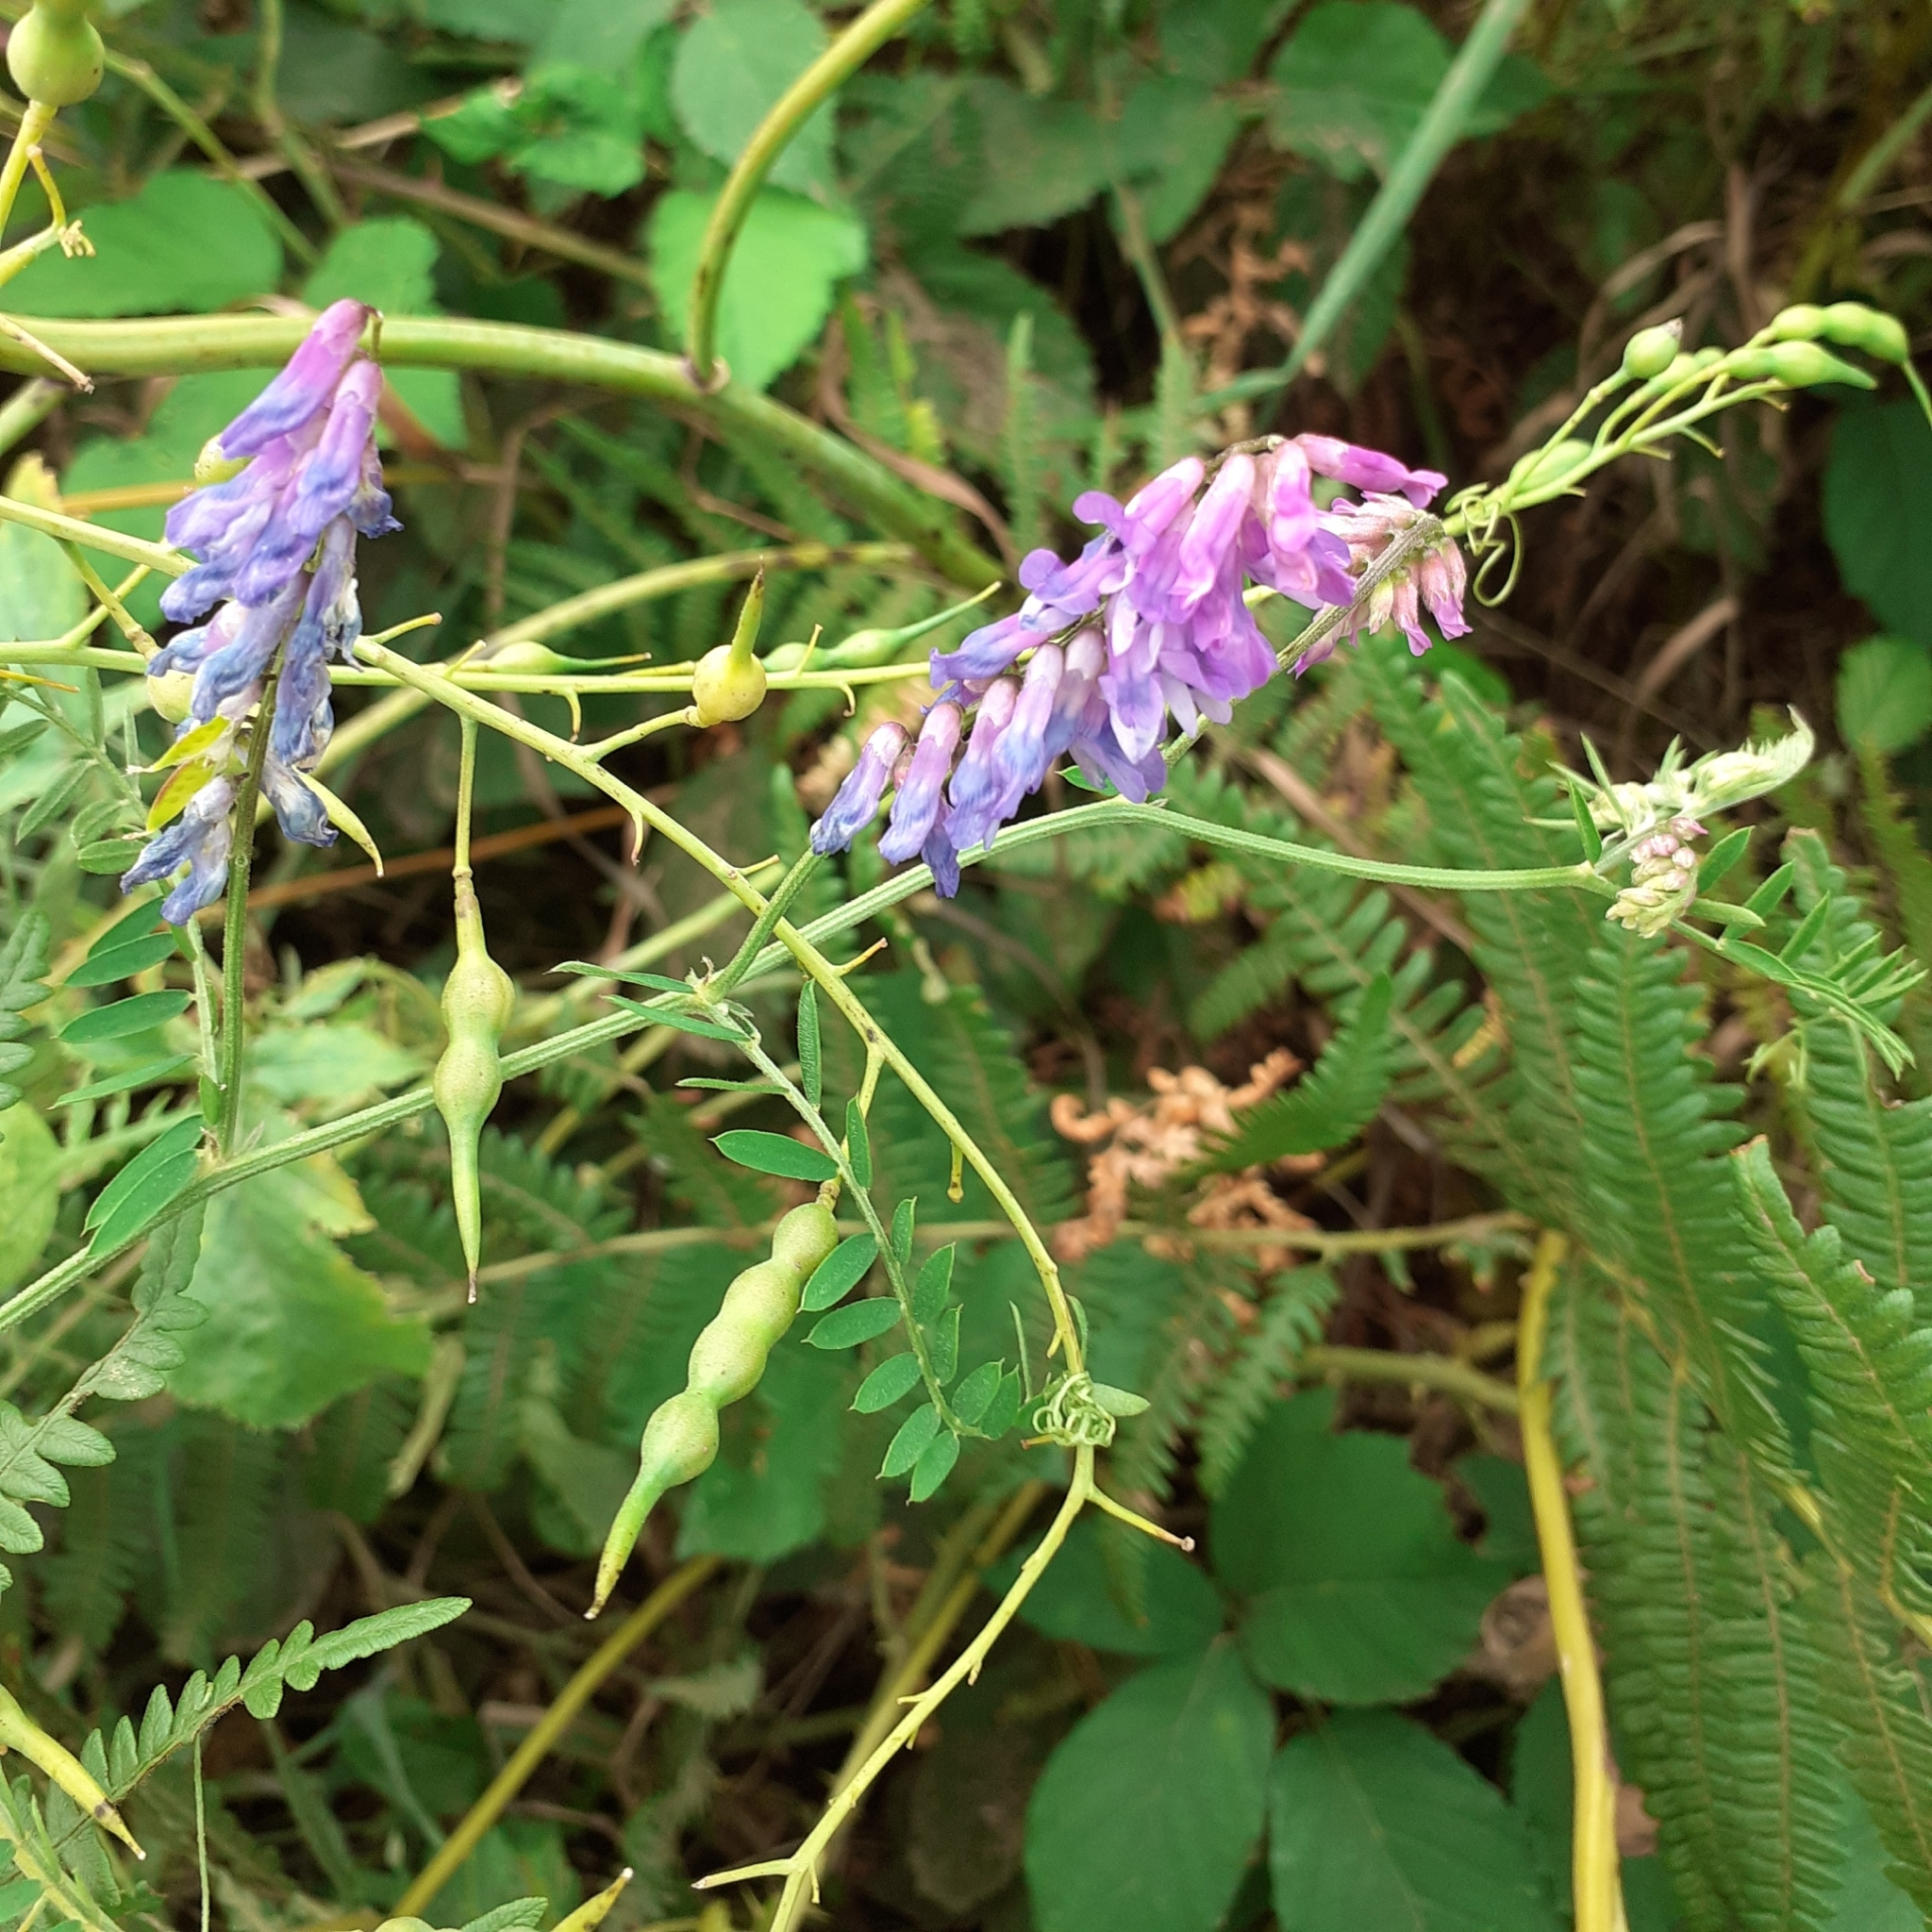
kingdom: Plantae
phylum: Tracheophyta
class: Magnoliopsida
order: Fabales
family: Fabaceae
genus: Vicia
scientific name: Vicia cracca
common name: Bird vetch
